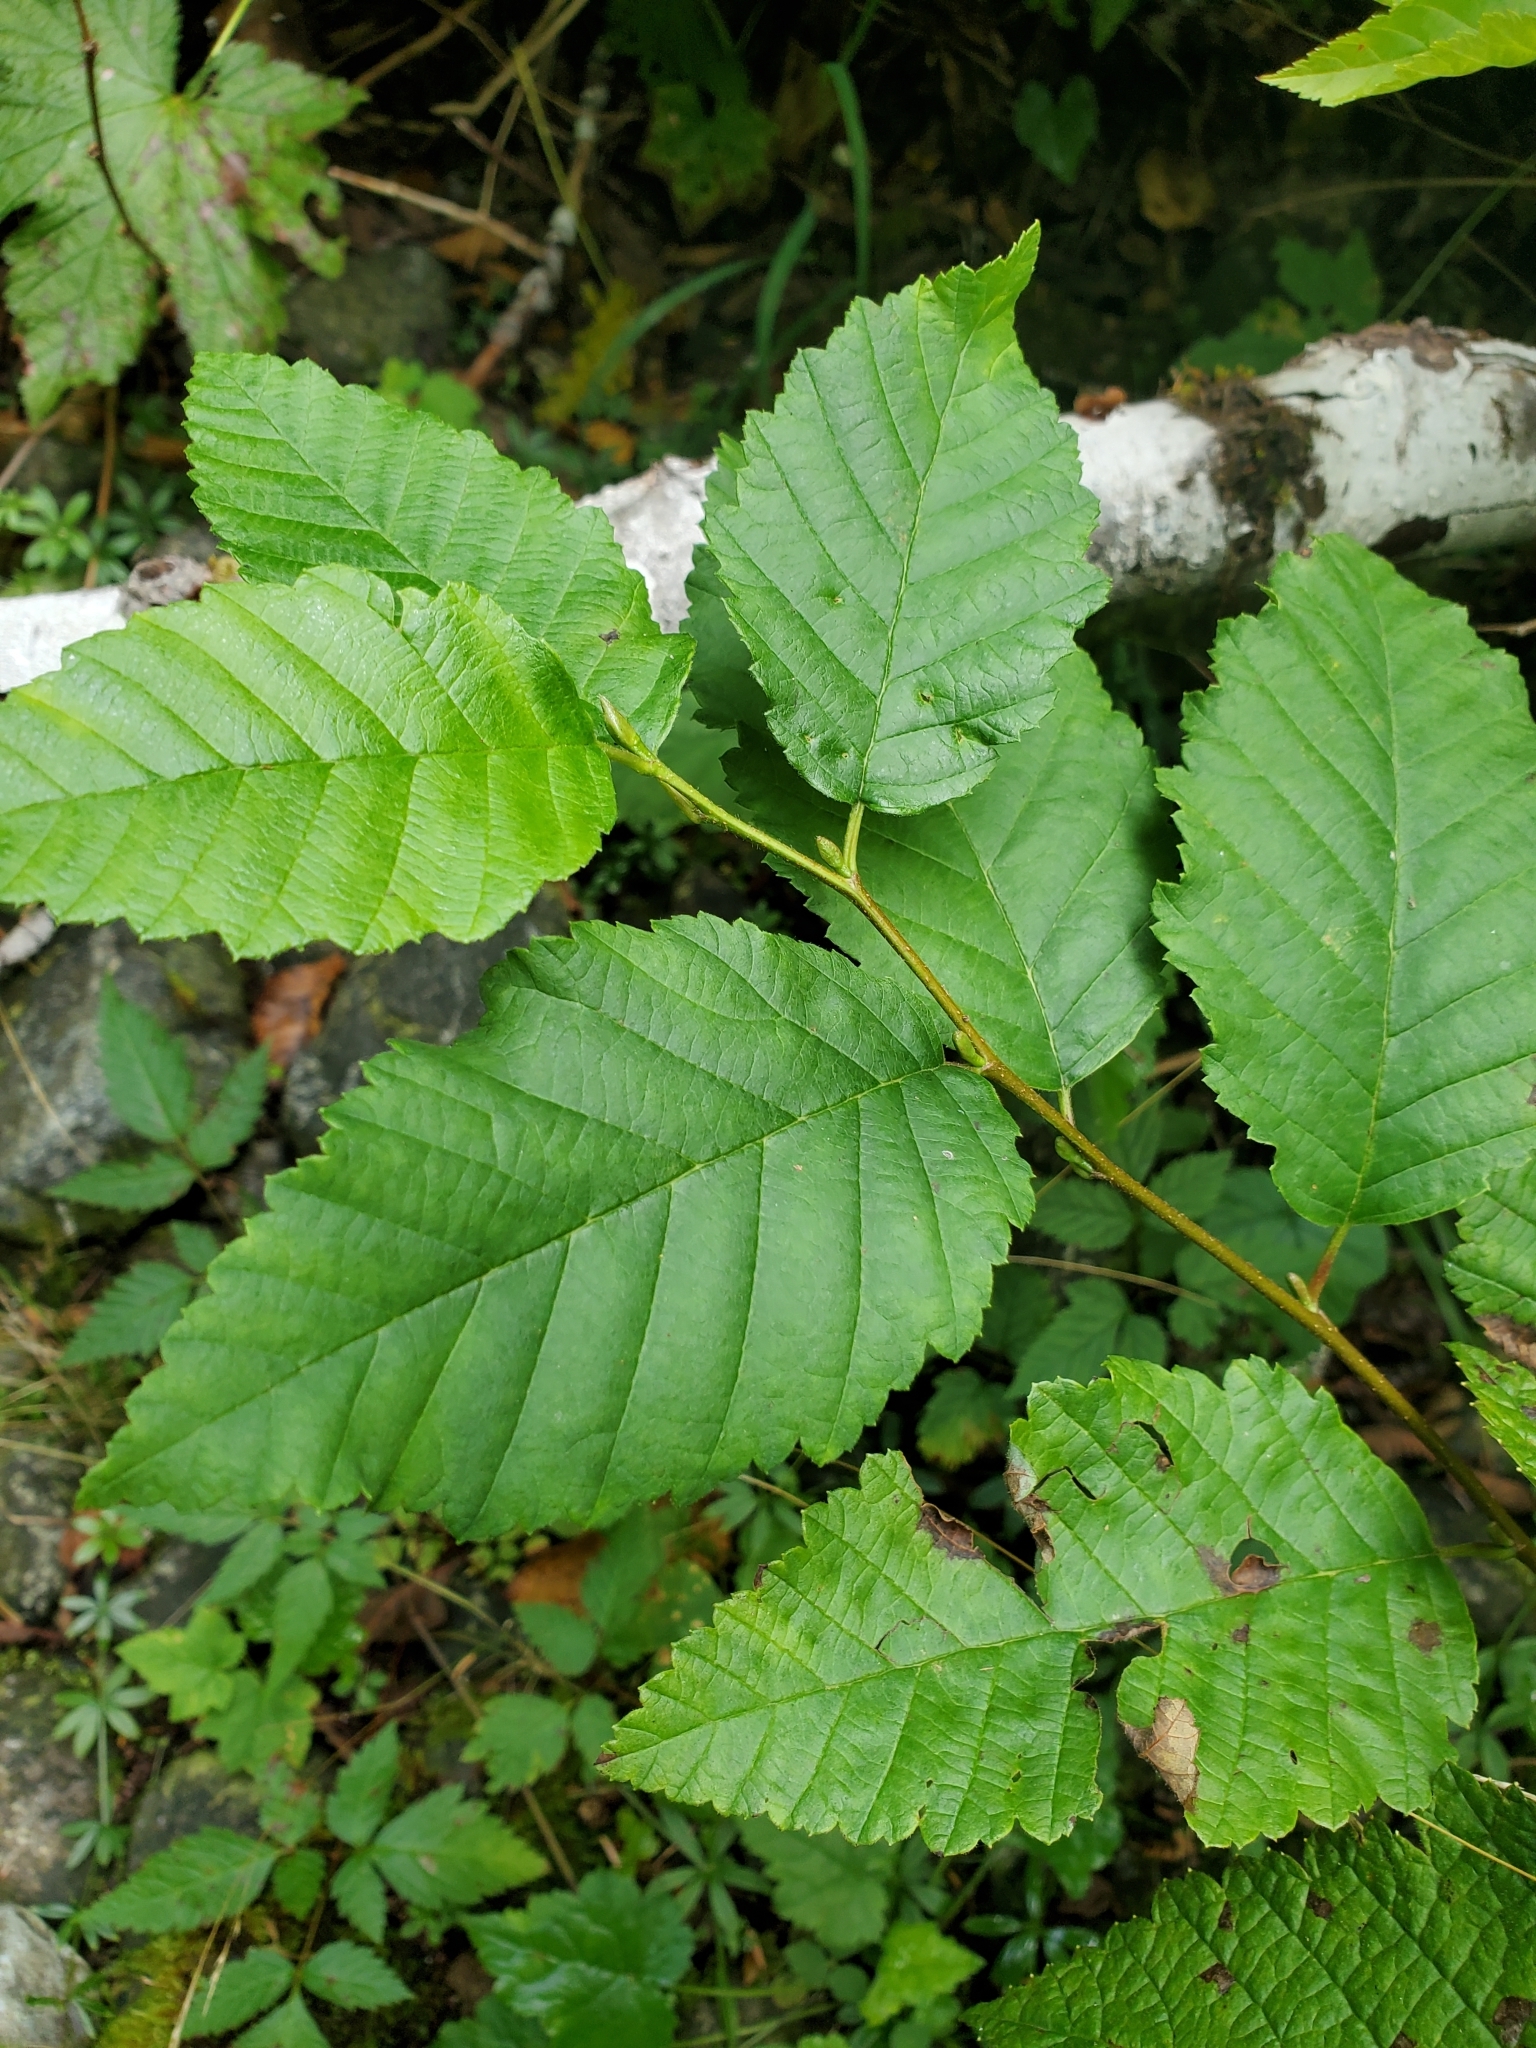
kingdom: Plantae
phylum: Tracheophyta
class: Magnoliopsida
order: Fagales
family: Betulaceae
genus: Alnus
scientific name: Alnus rubra
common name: Red alder
